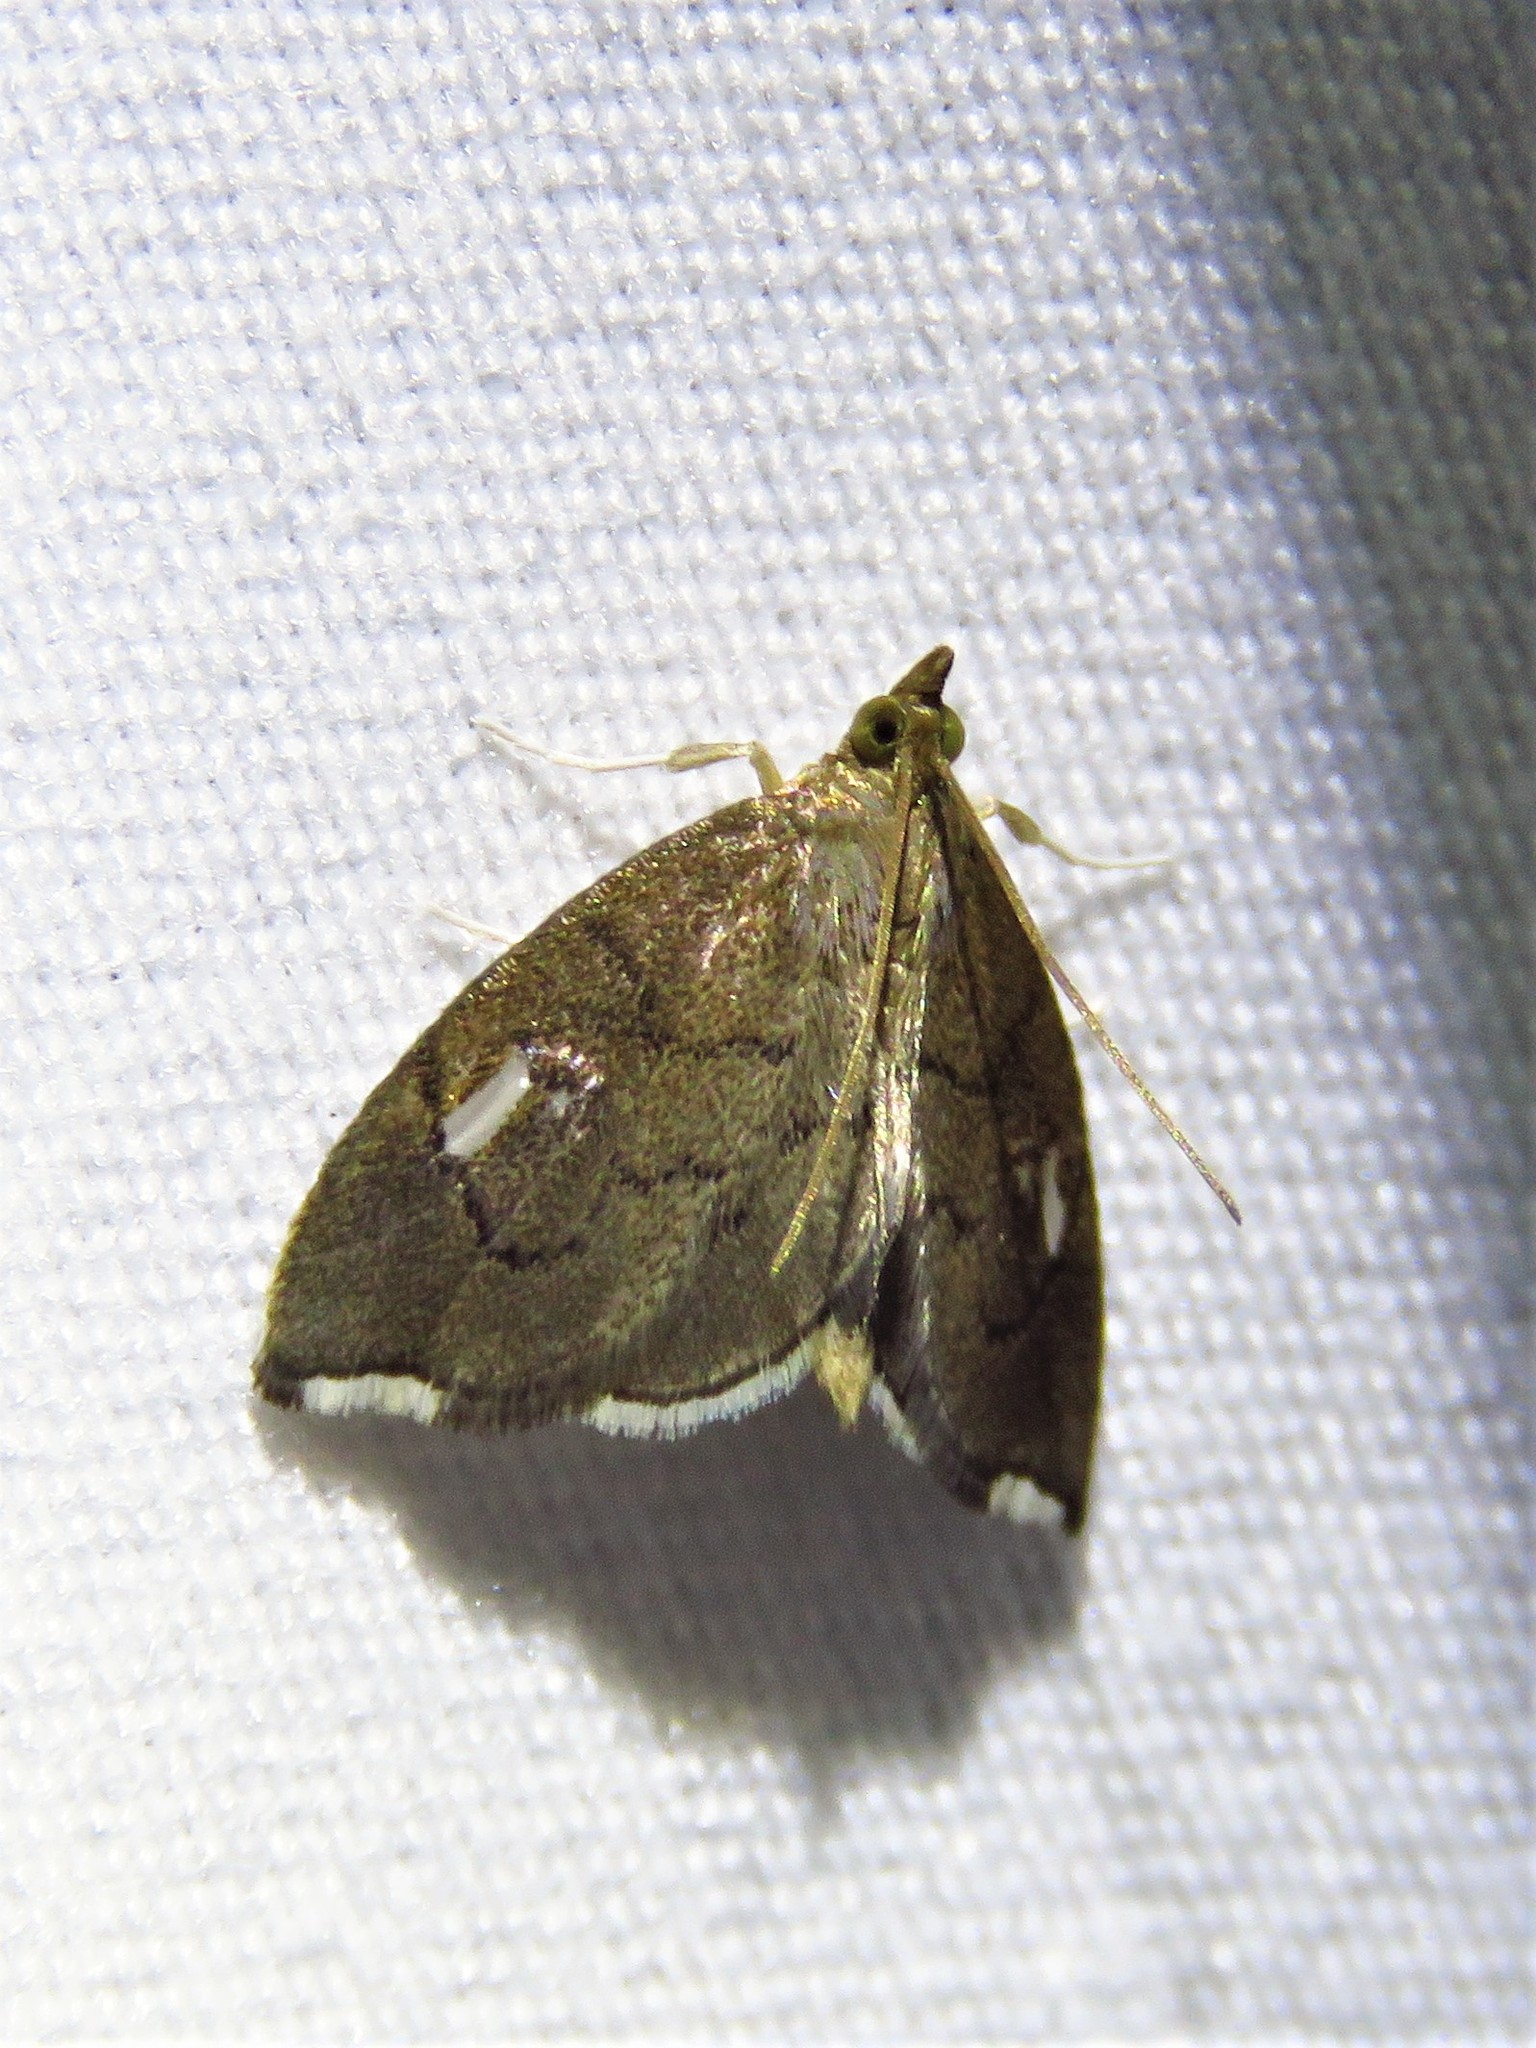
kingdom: Animalia
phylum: Arthropoda
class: Insecta
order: Lepidoptera
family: Crambidae
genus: Perispasta
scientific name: Perispasta caeculalis
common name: Titian peale's moth
